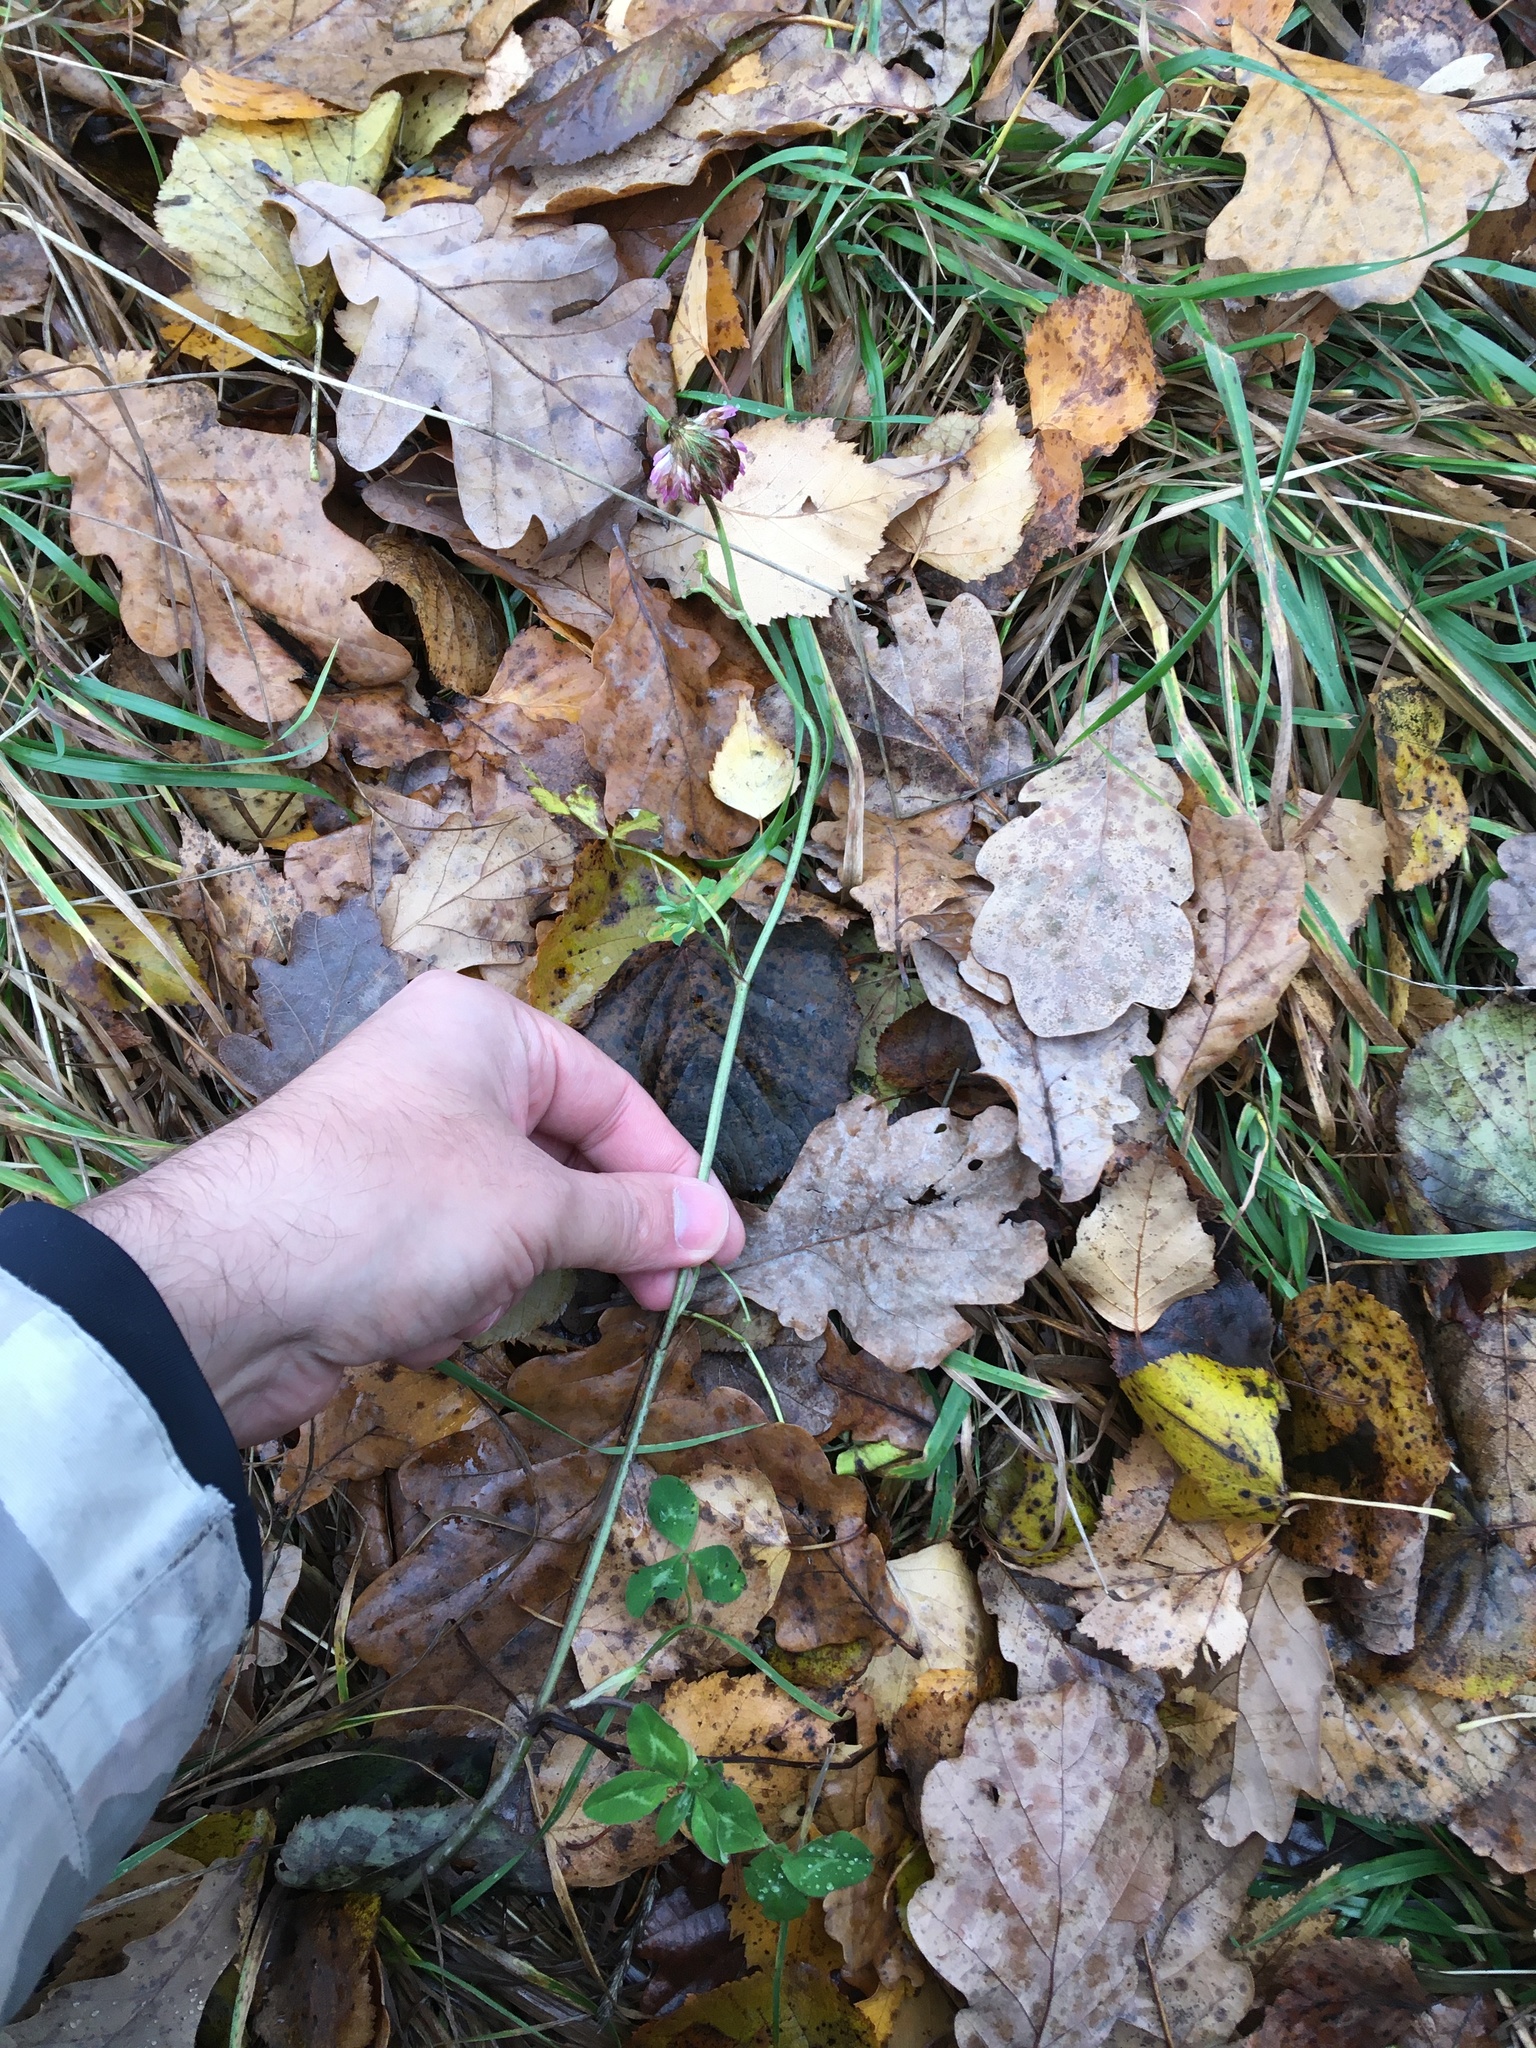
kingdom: Plantae
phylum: Tracheophyta
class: Magnoliopsida
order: Fabales
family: Fabaceae
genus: Trifolium
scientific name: Trifolium pratense
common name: Red clover
